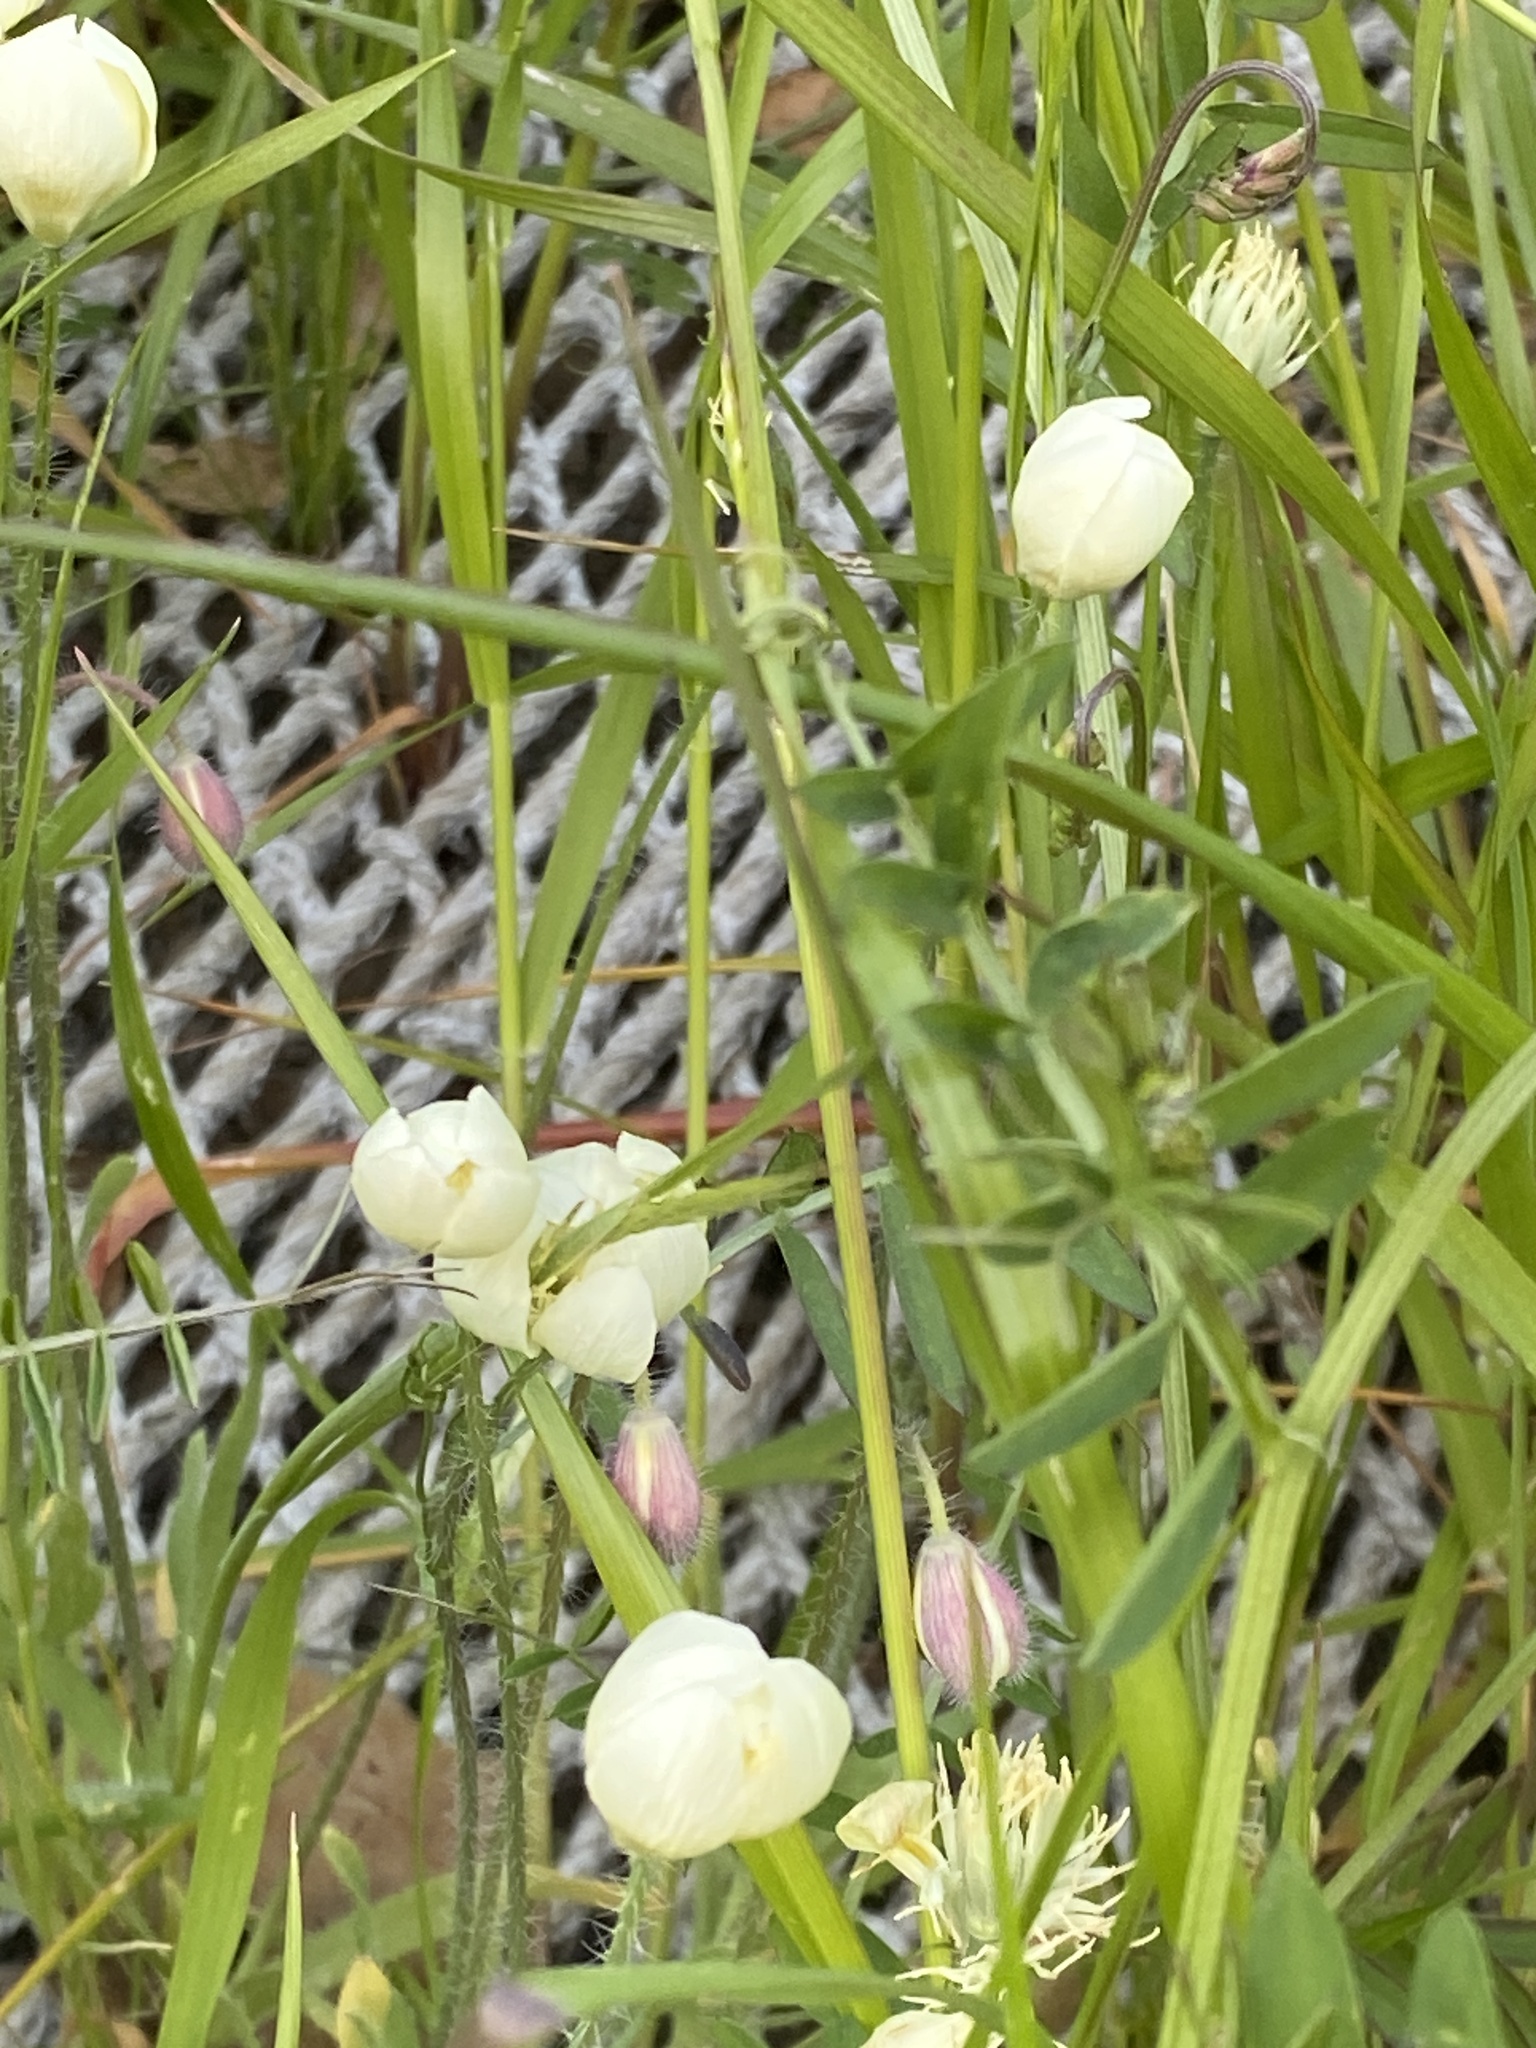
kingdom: Plantae
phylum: Tracheophyta
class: Magnoliopsida
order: Ranunculales
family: Papaveraceae
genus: Platystemon
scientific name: Platystemon californicus
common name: Cream-cups
